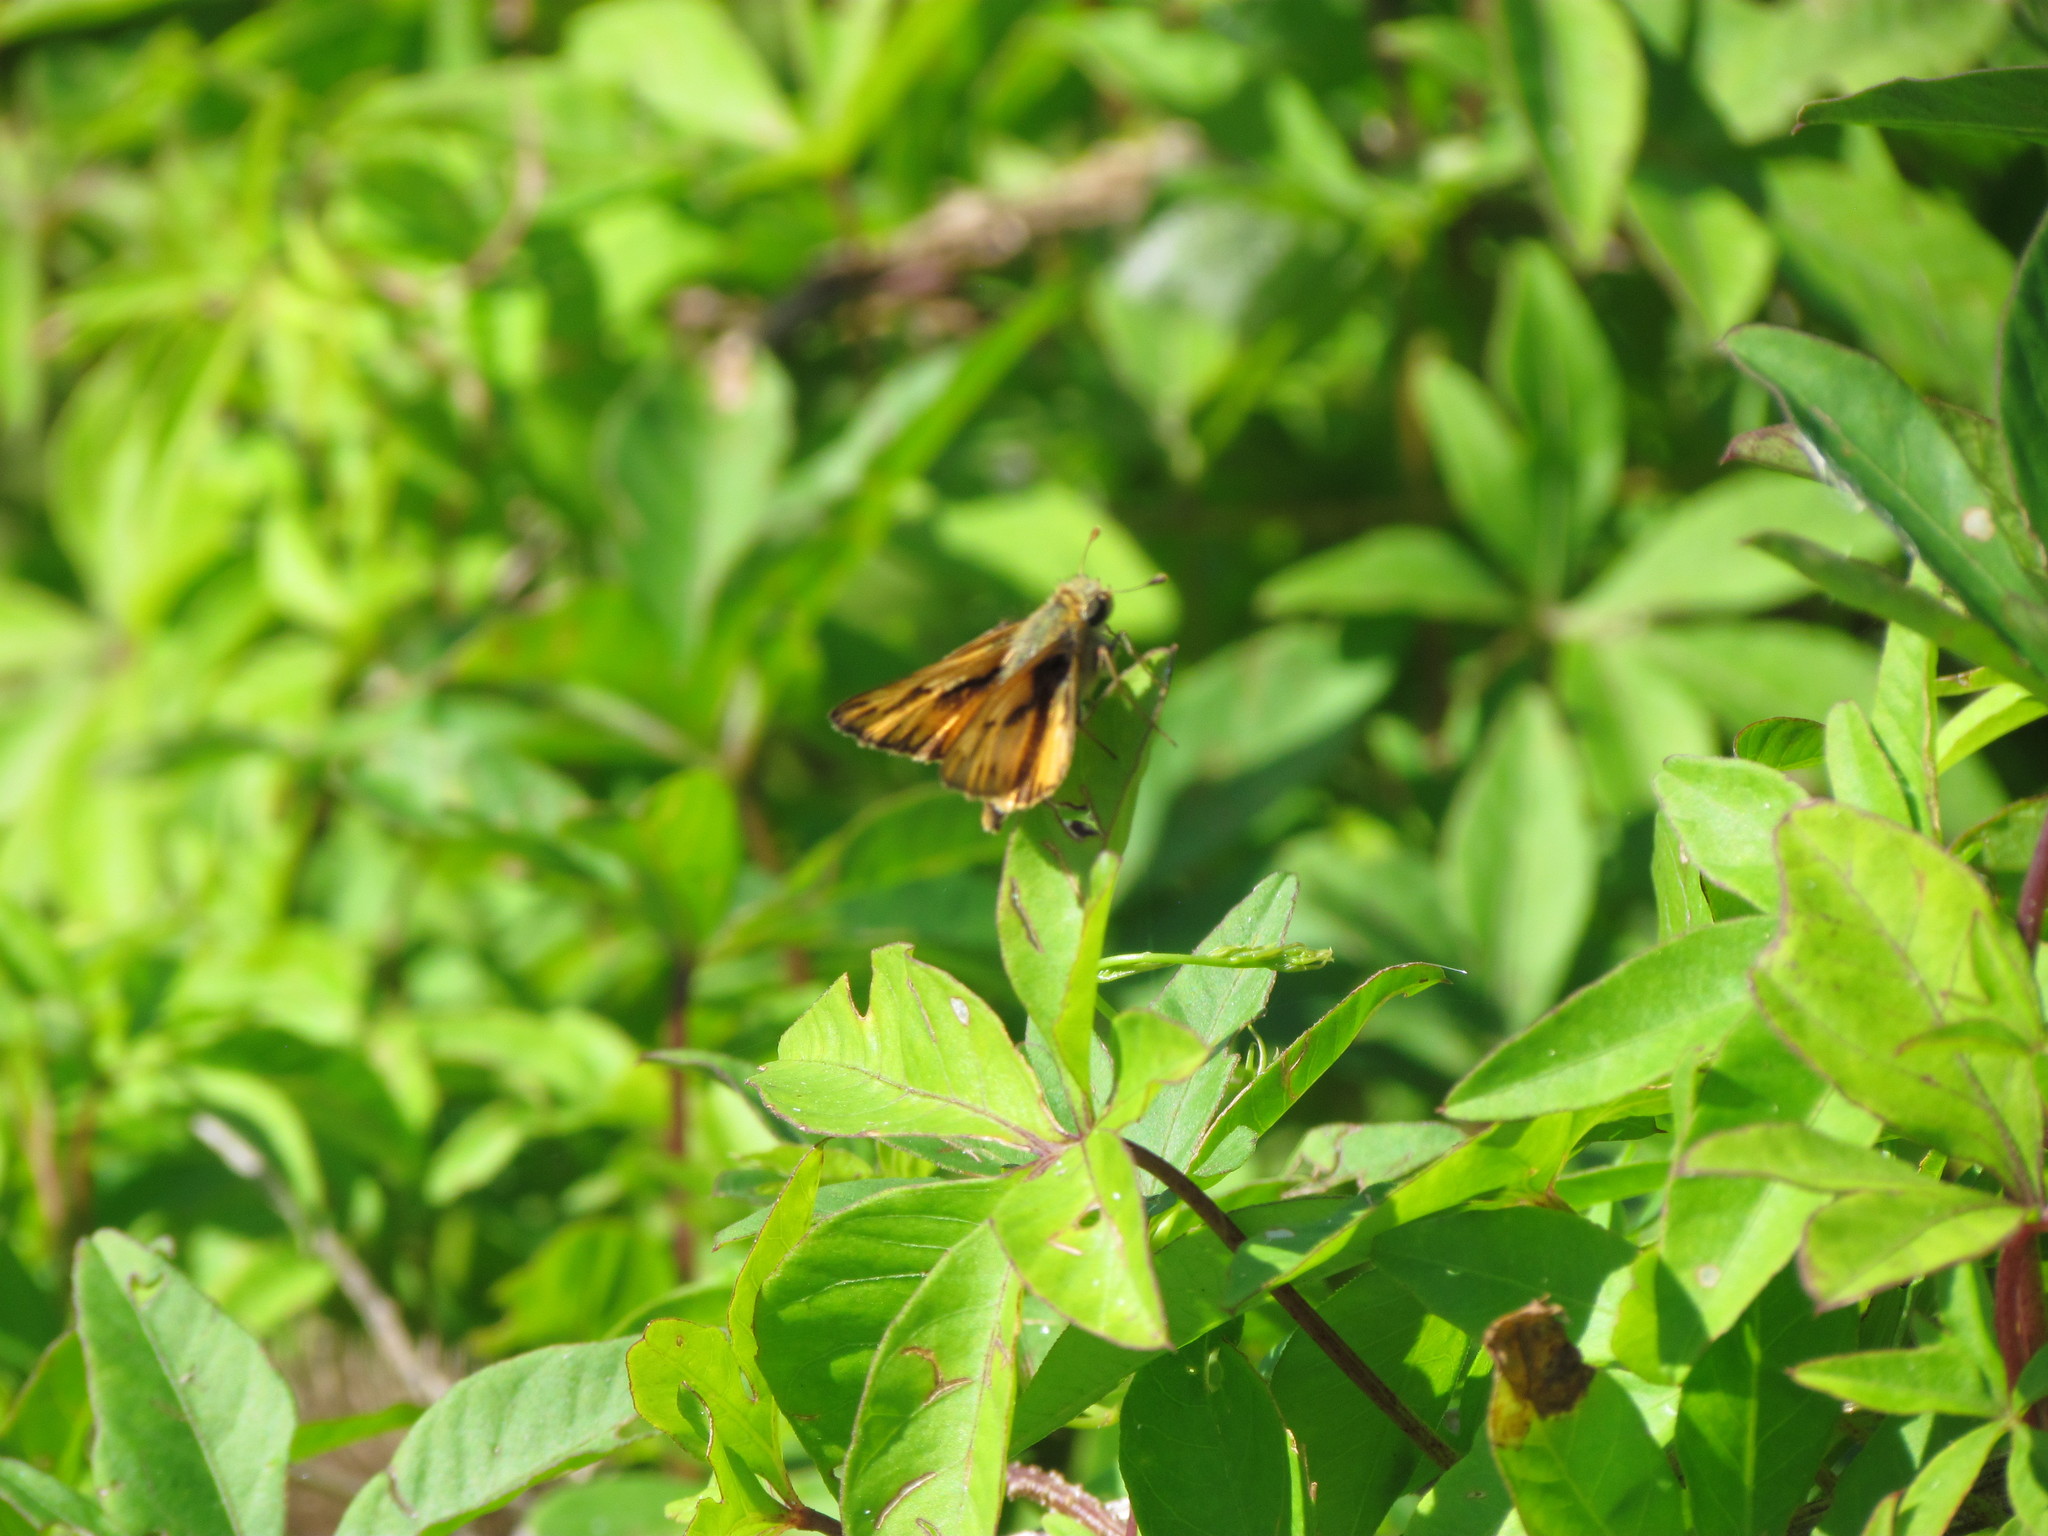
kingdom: Animalia
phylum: Arthropoda
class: Insecta
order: Lepidoptera
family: Hesperiidae
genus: Hylephila
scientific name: Hylephila phyleus
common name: Fiery skipper
